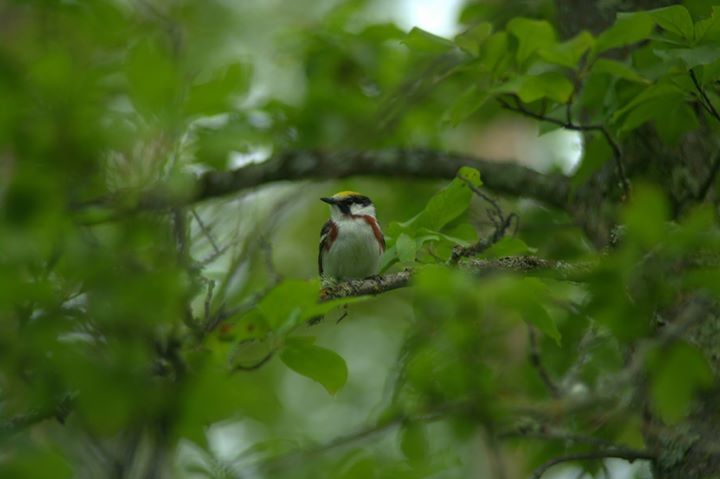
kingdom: Animalia
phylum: Chordata
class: Aves
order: Passeriformes
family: Parulidae
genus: Setophaga
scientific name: Setophaga pensylvanica
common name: Chestnut-sided warbler
